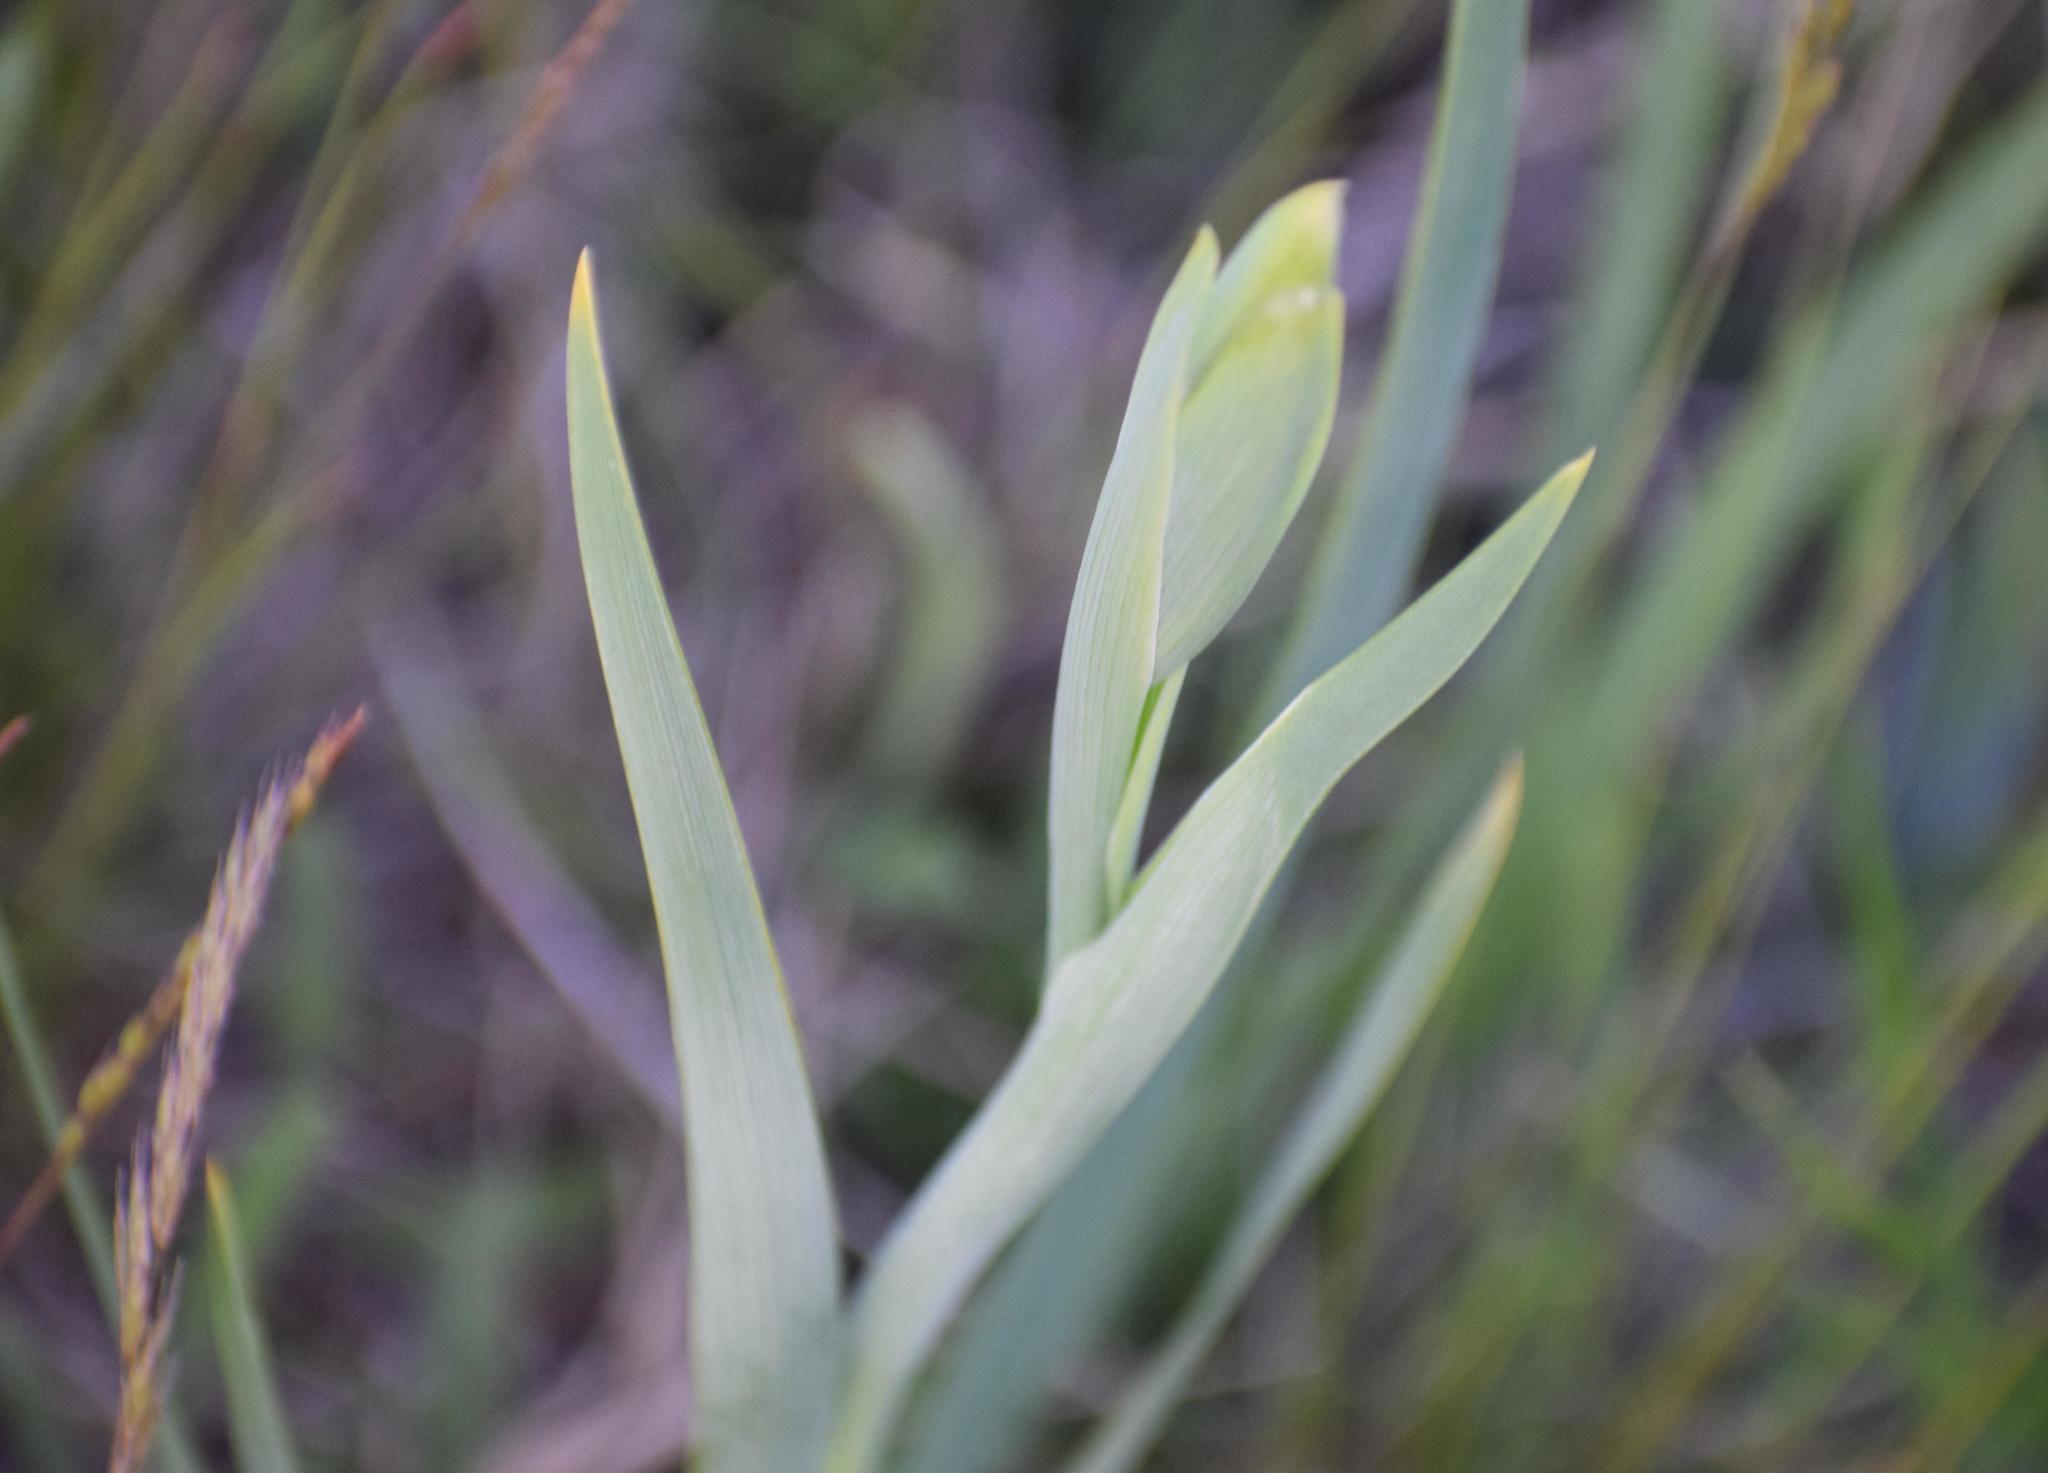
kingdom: Plantae
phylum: Tracheophyta
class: Liliopsida
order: Asparagales
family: Iridaceae
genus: Gladiolus
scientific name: Gladiolus palustris
